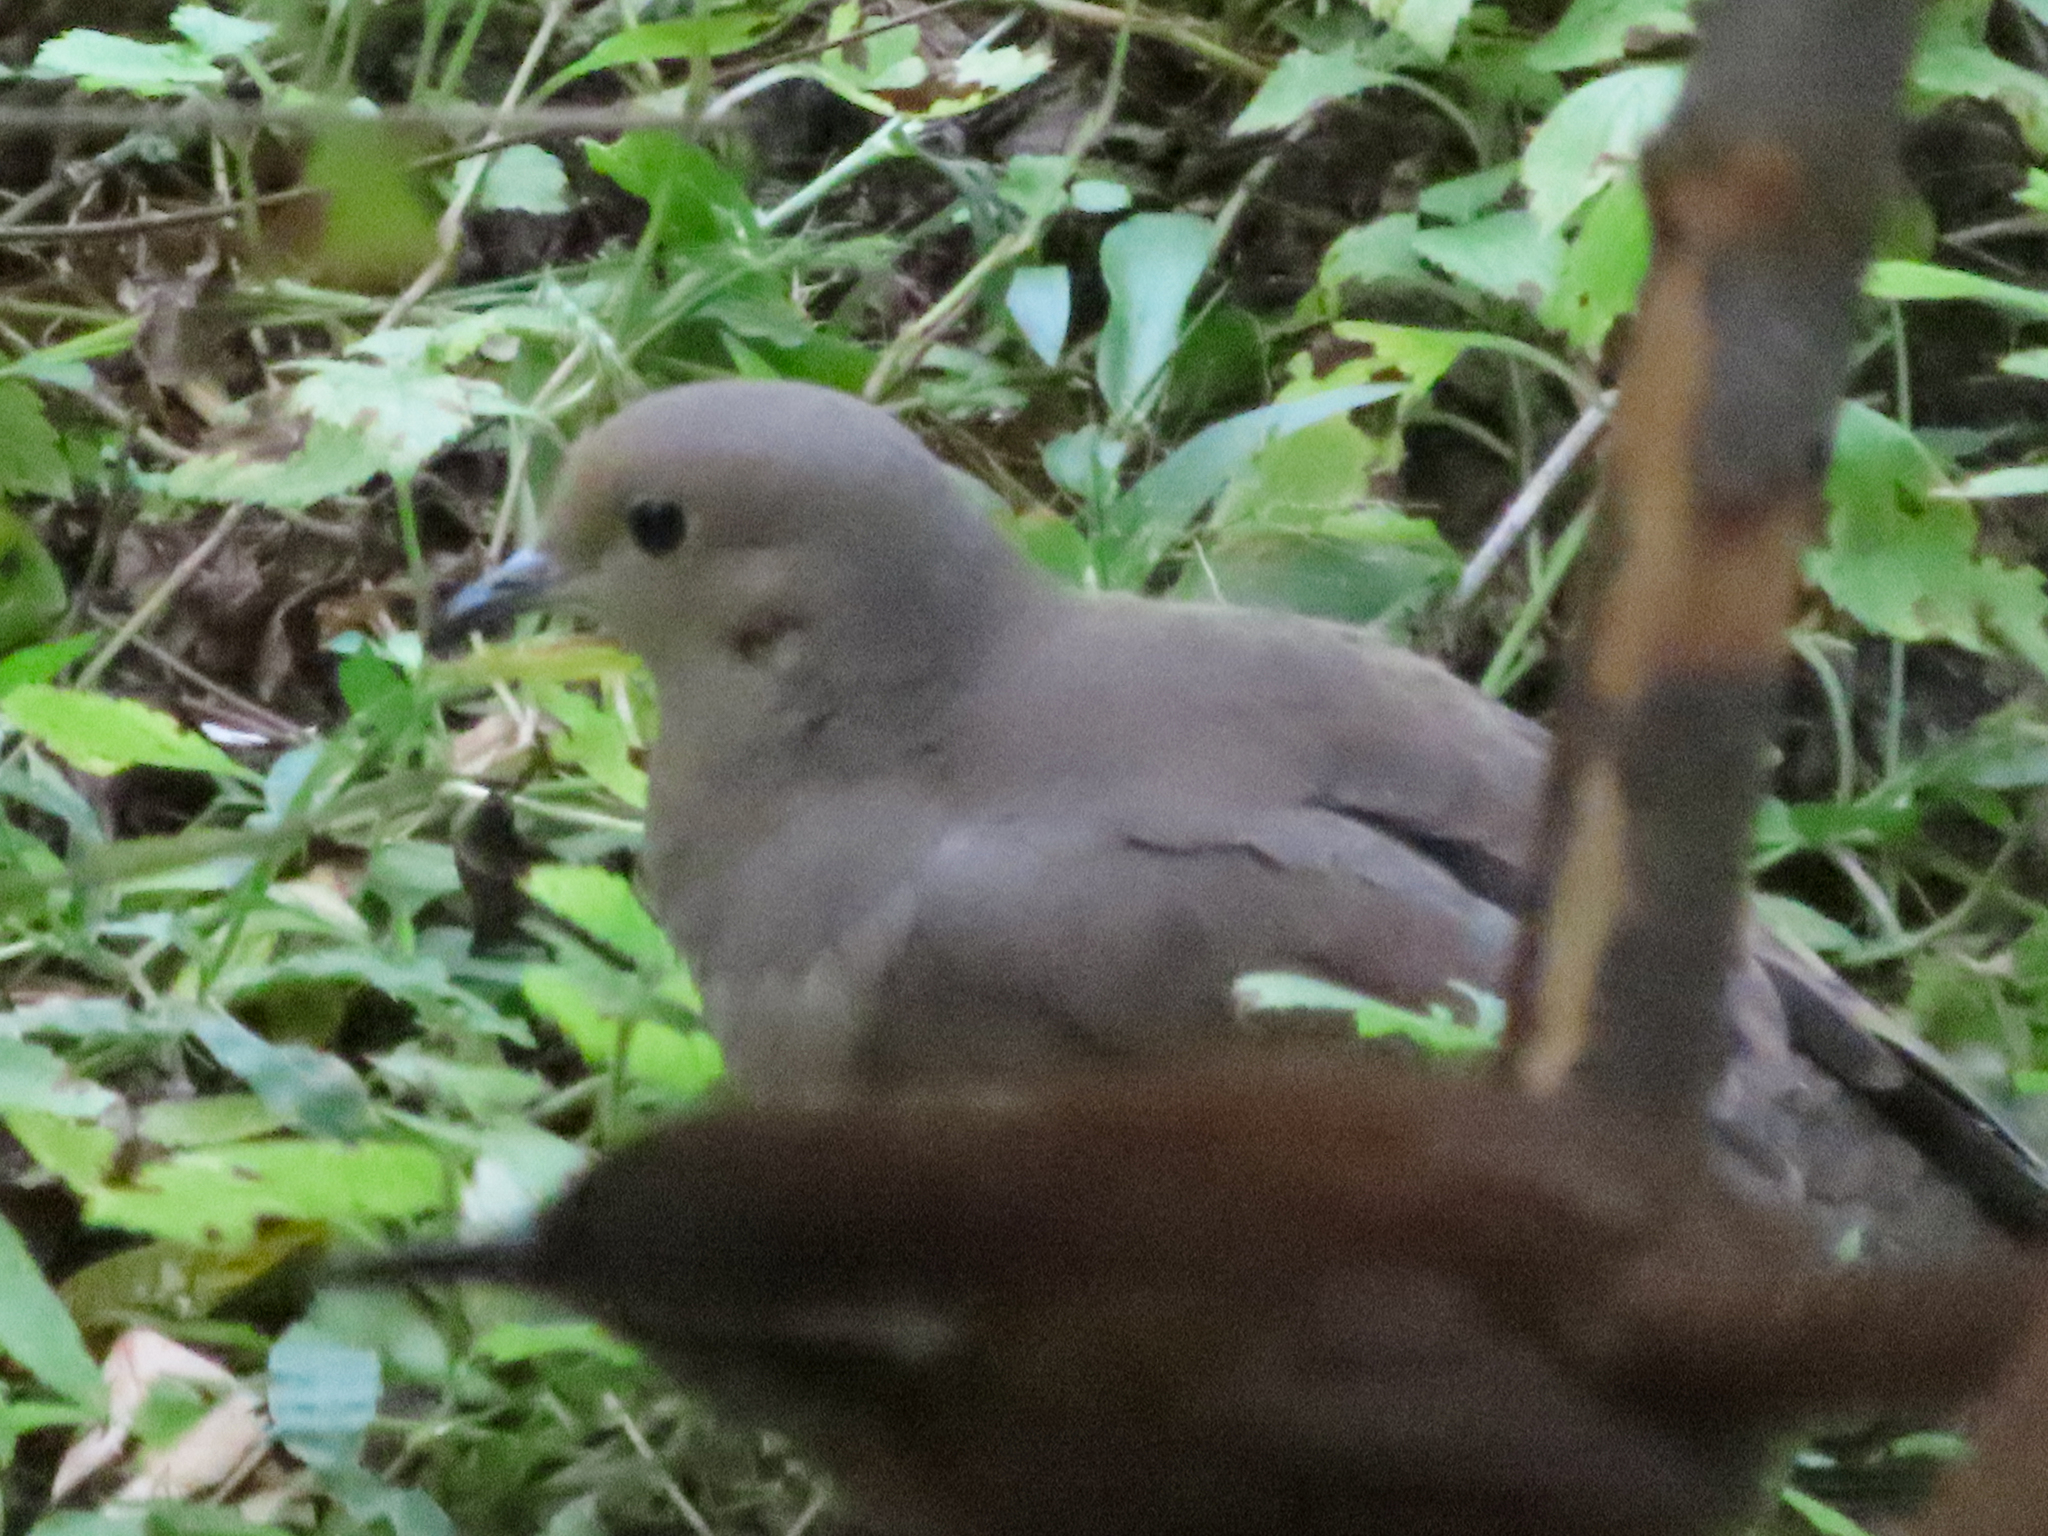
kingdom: Animalia
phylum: Chordata
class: Aves
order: Columbiformes
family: Columbidae
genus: Zenaida
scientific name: Zenaida macroura
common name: Mourning dove
